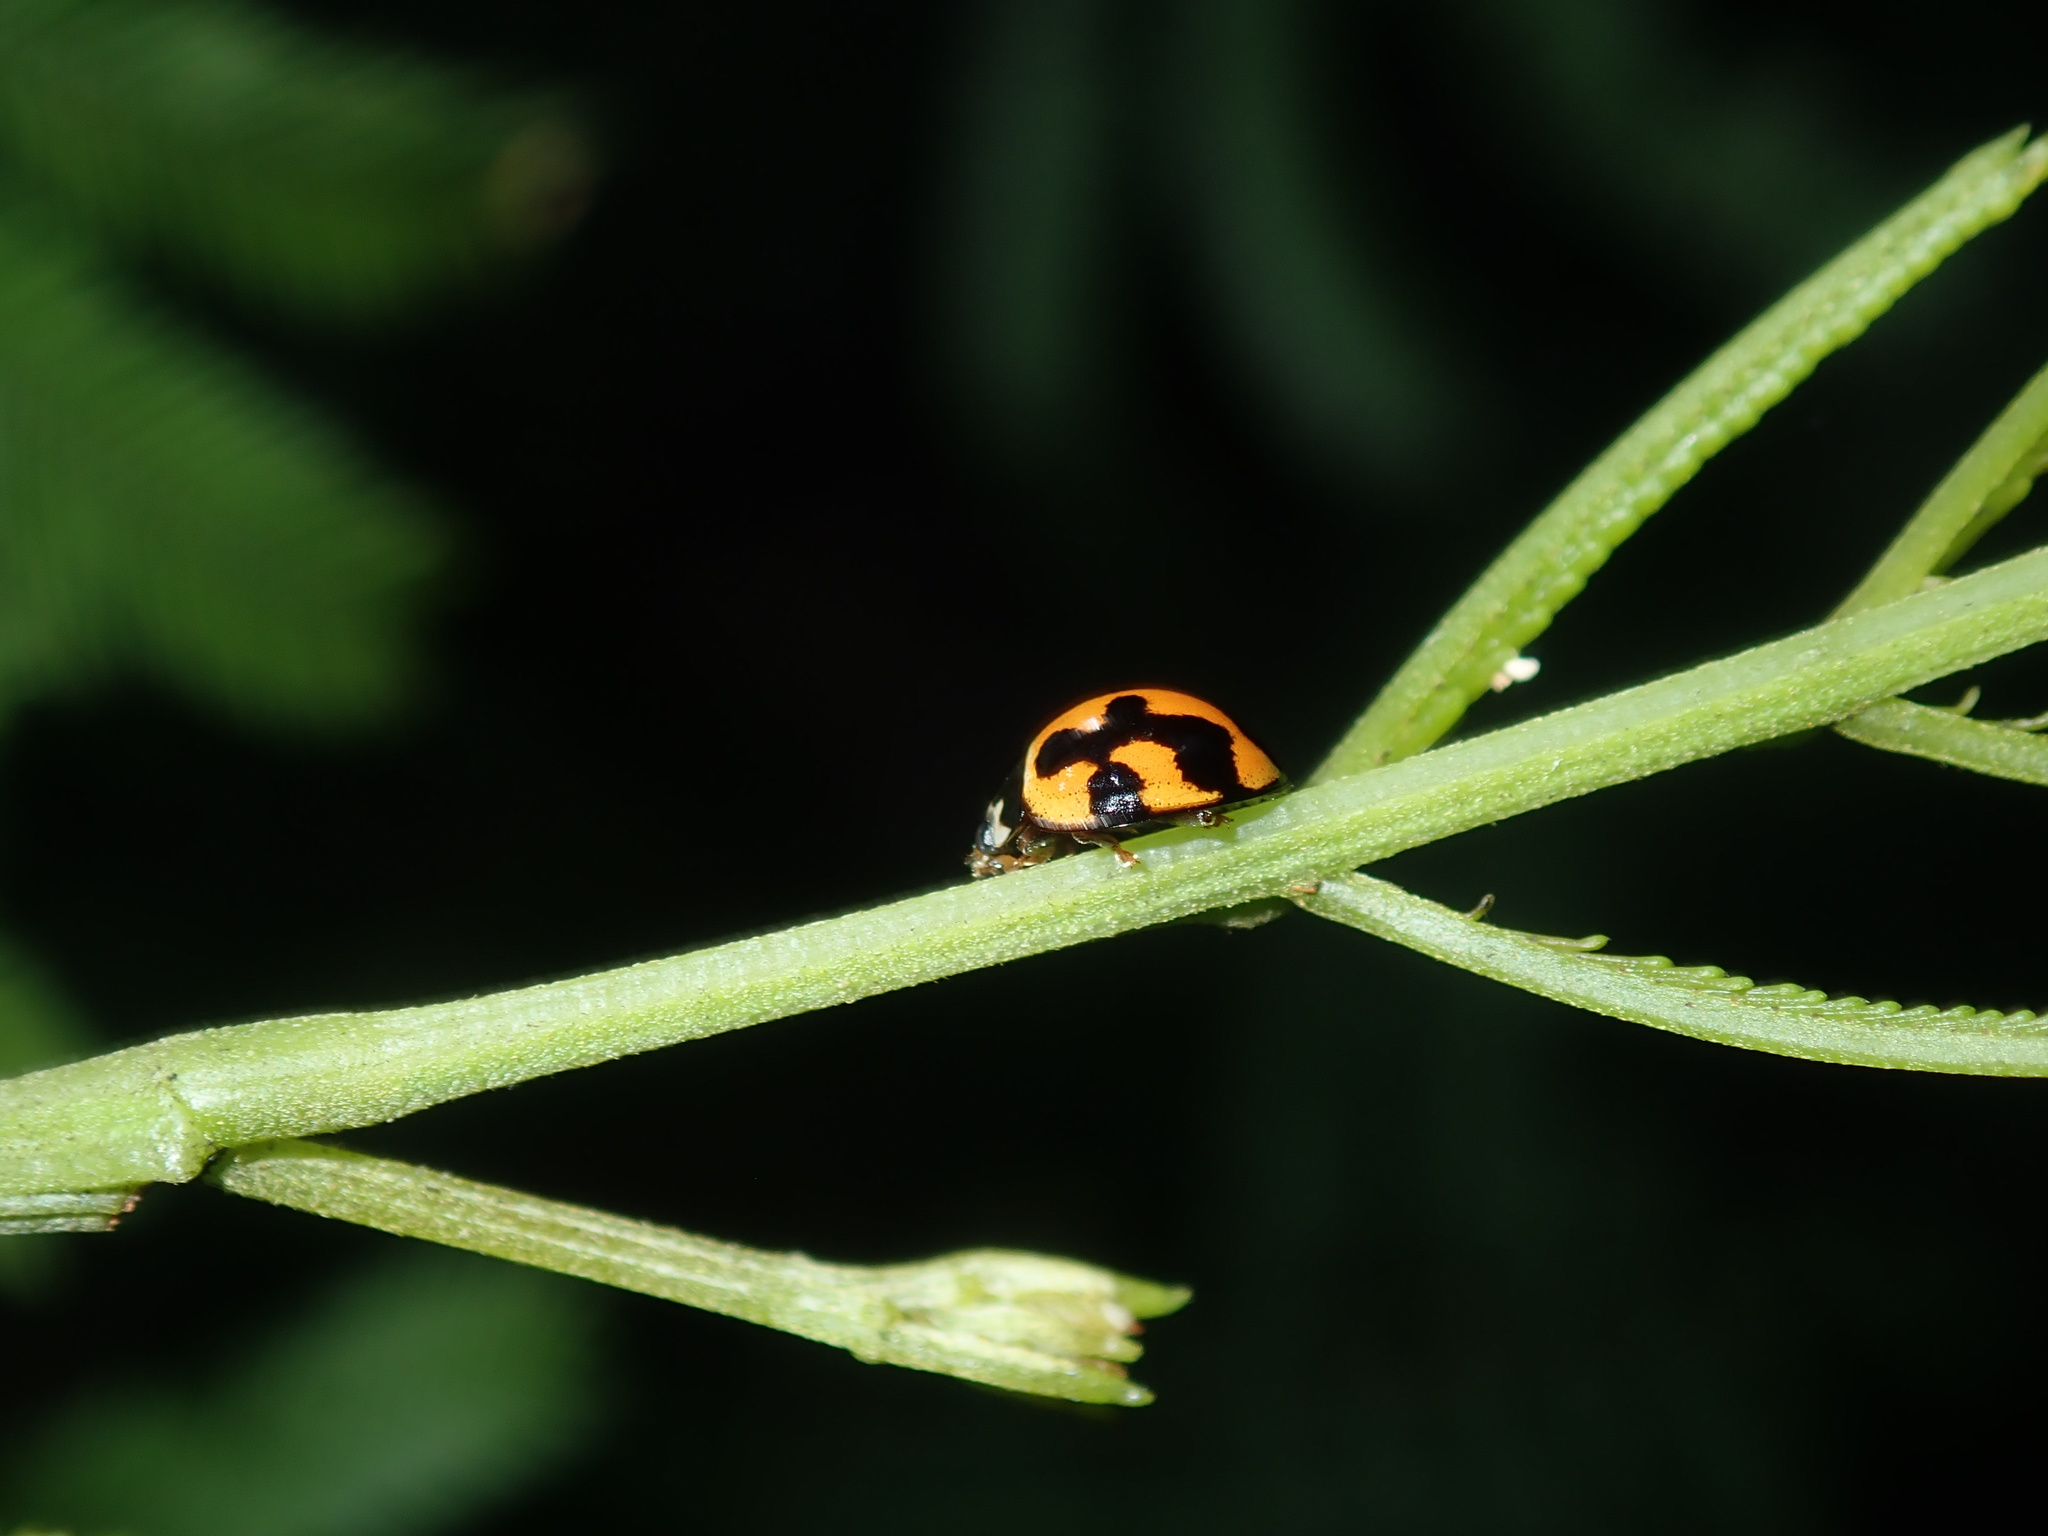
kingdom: Animalia
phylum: Arthropoda
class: Insecta
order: Coleoptera
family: Coccinellidae
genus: Coelophora
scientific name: Coelophora inaequalis
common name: Common australian lady beetle
